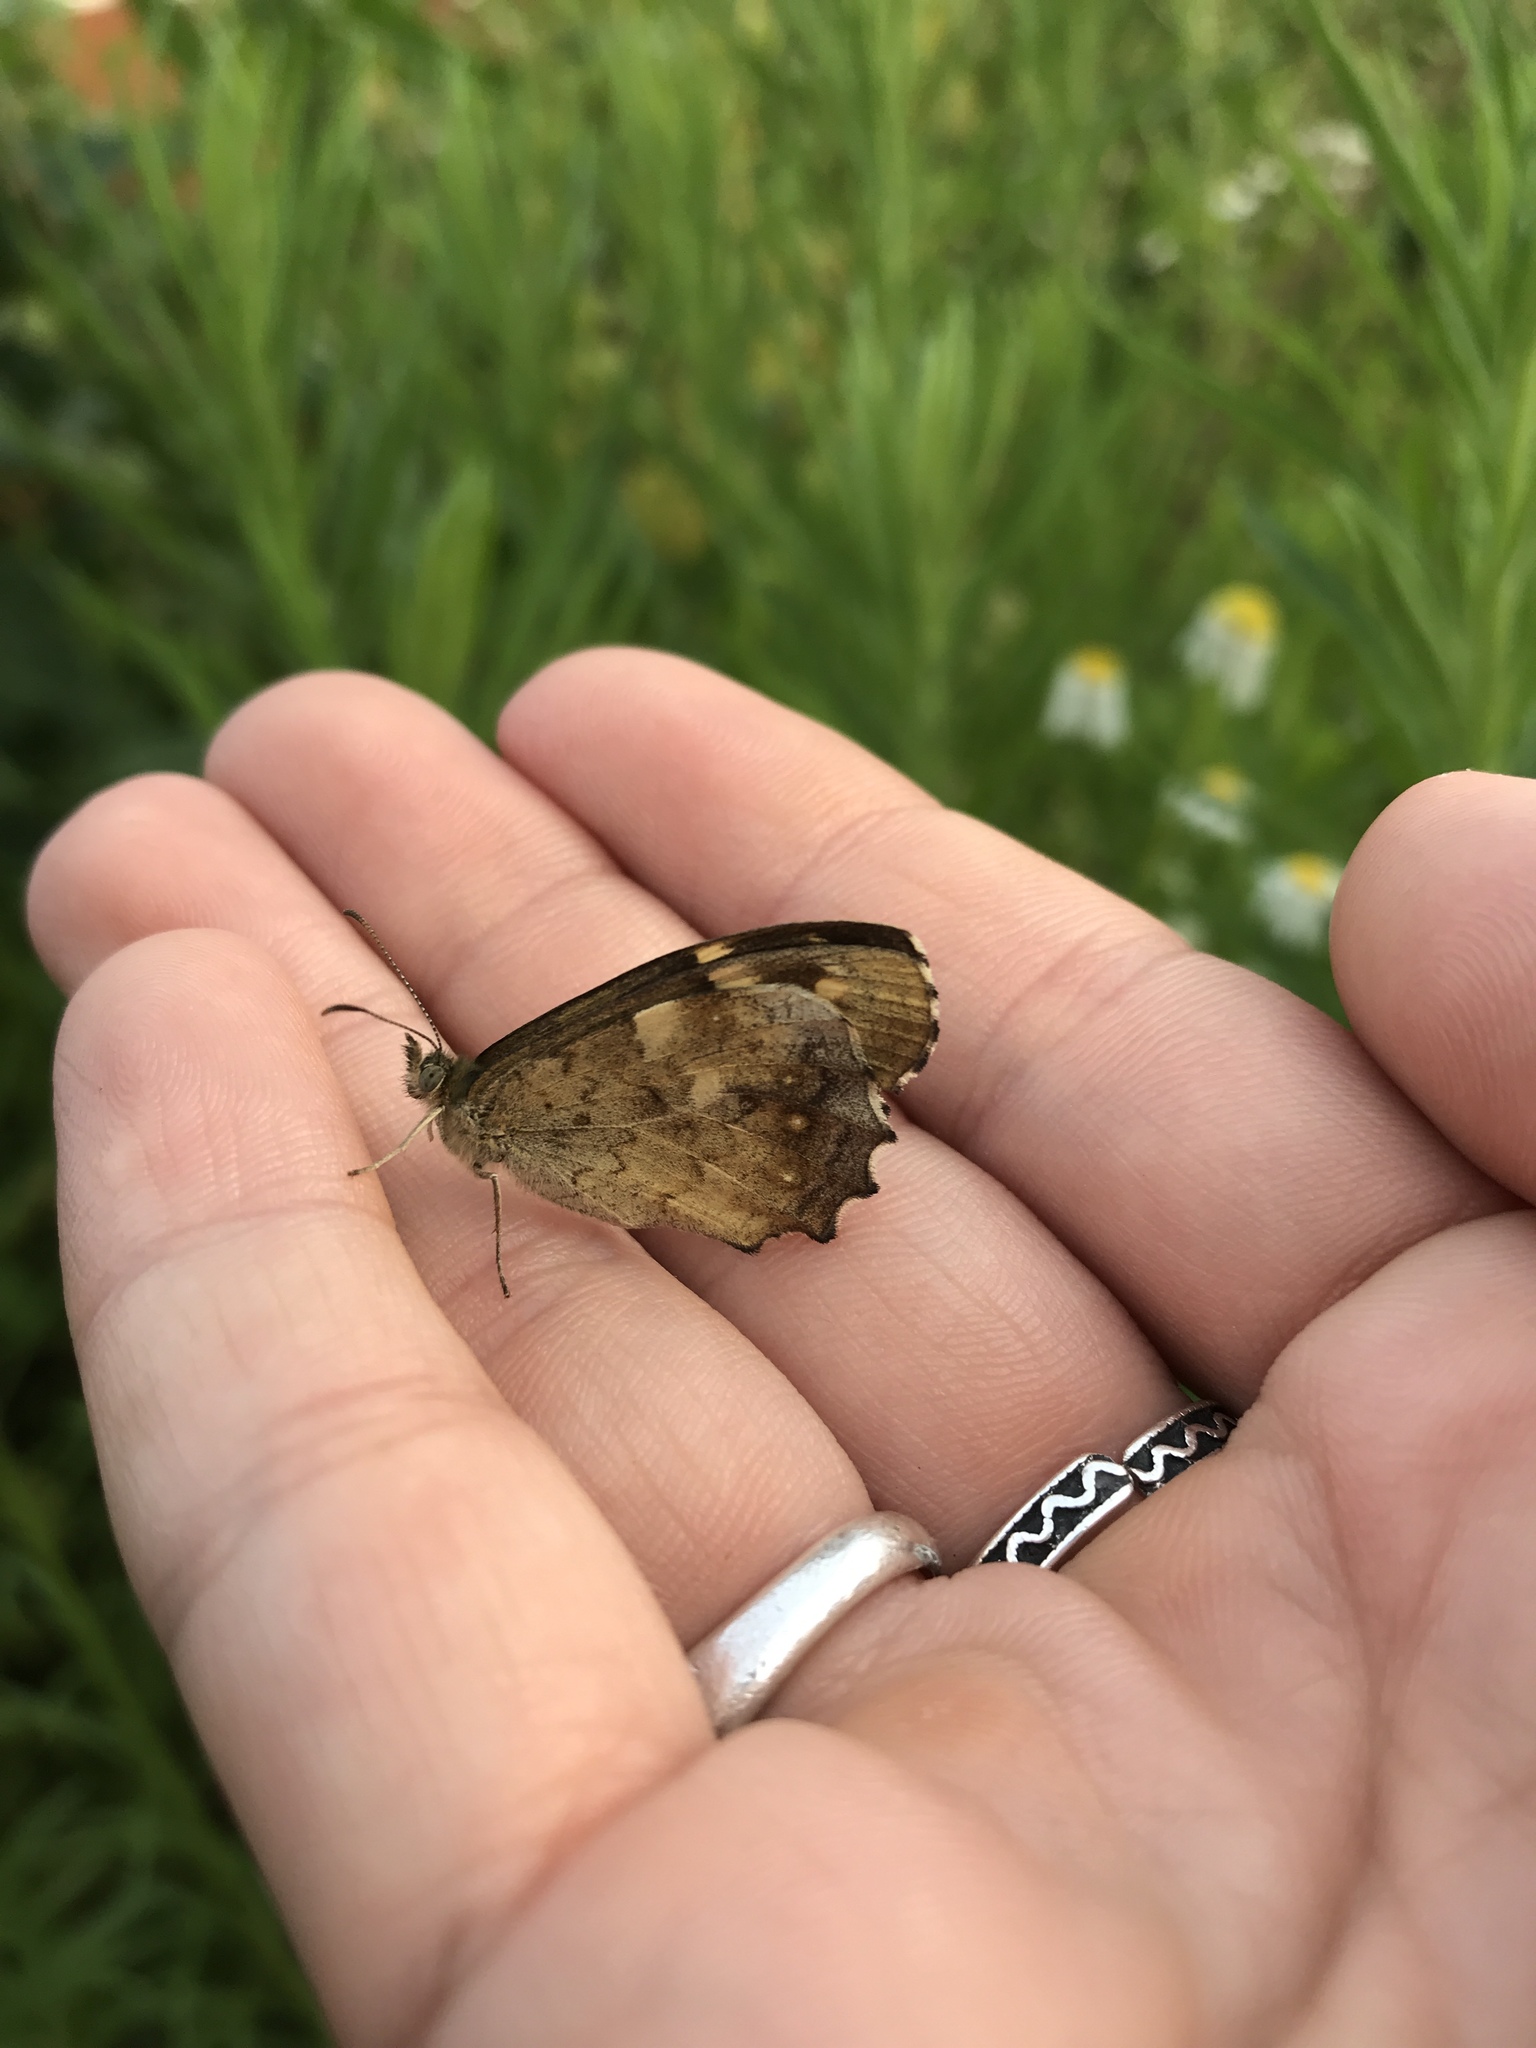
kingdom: Animalia
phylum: Arthropoda
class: Insecta
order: Lepidoptera
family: Nymphalidae
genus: Pararge
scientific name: Pararge aegeria
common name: Speckled wood
